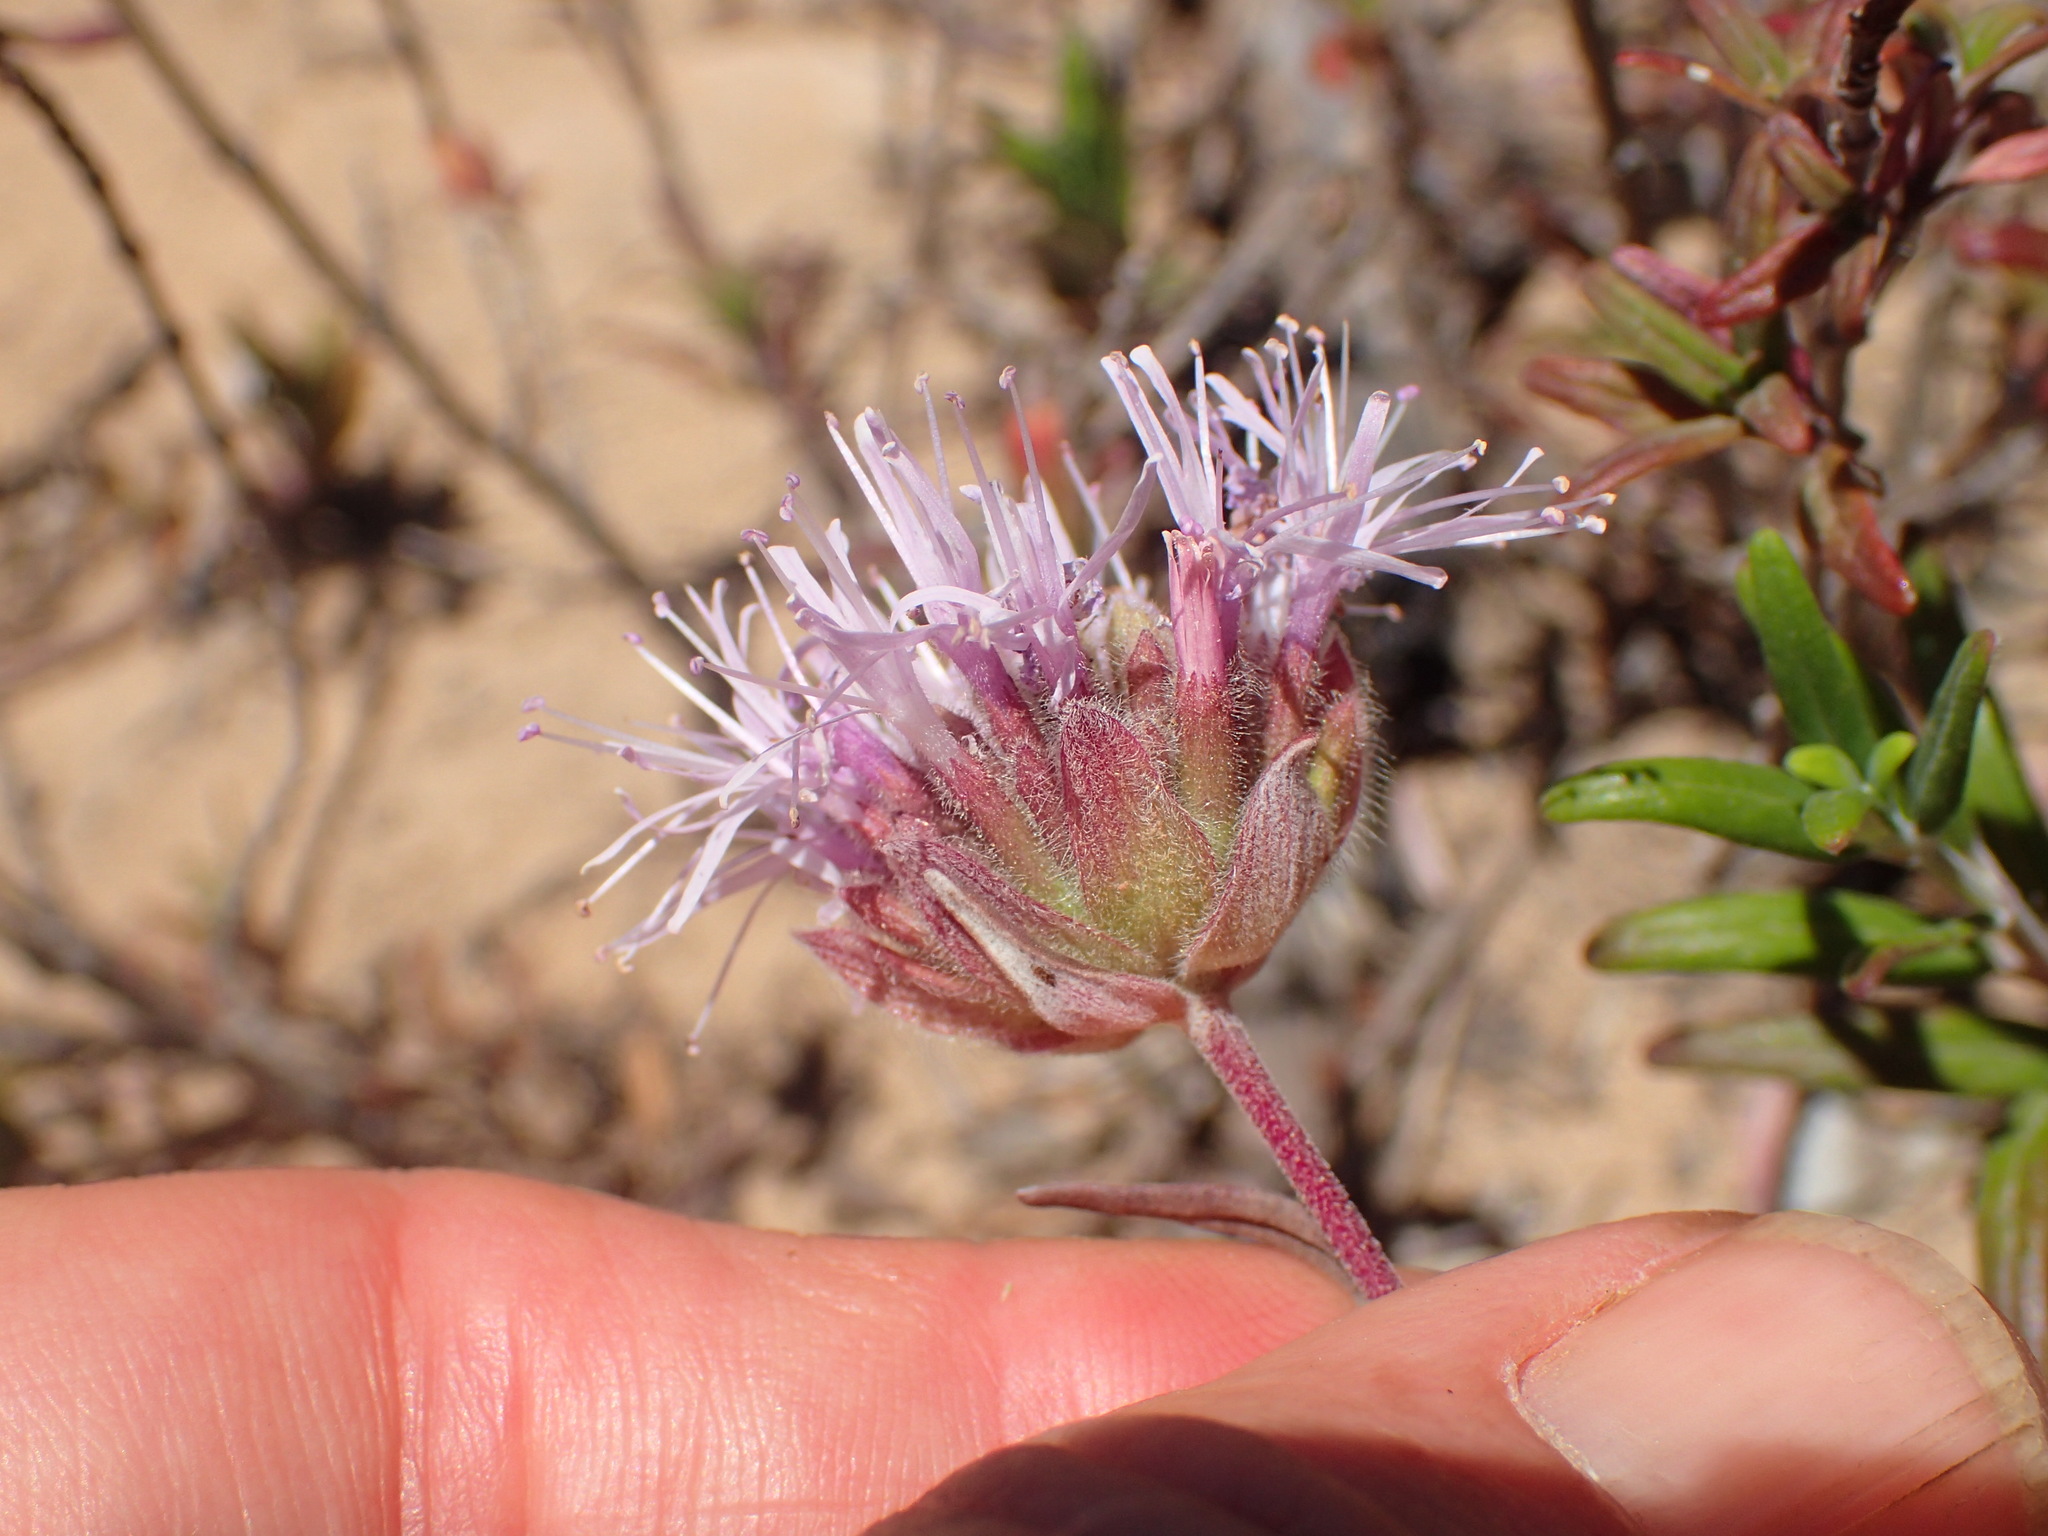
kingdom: Plantae
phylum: Tracheophyta
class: Magnoliopsida
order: Lamiales
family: Lamiaceae
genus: Monardella
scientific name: Monardella hypoleuca
